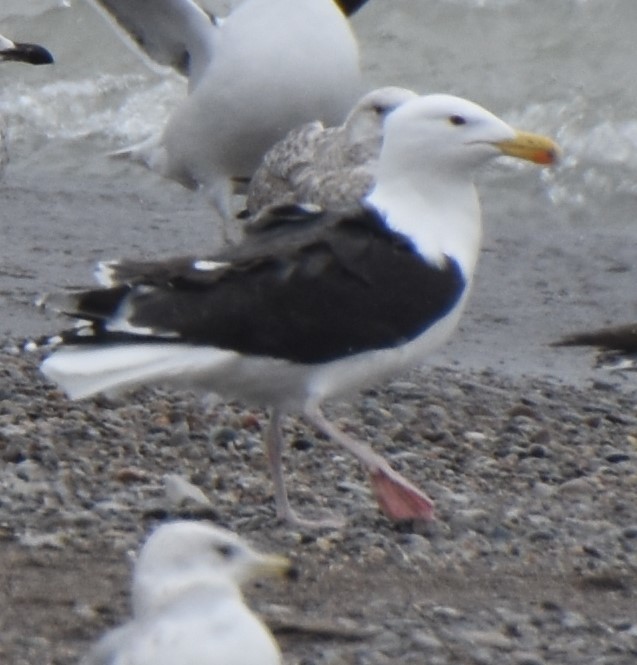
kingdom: Animalia
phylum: Chordata
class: Aves
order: Charadriiformes
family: Laridae
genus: Larus
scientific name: Larus marinus
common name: Great black-backed gull
